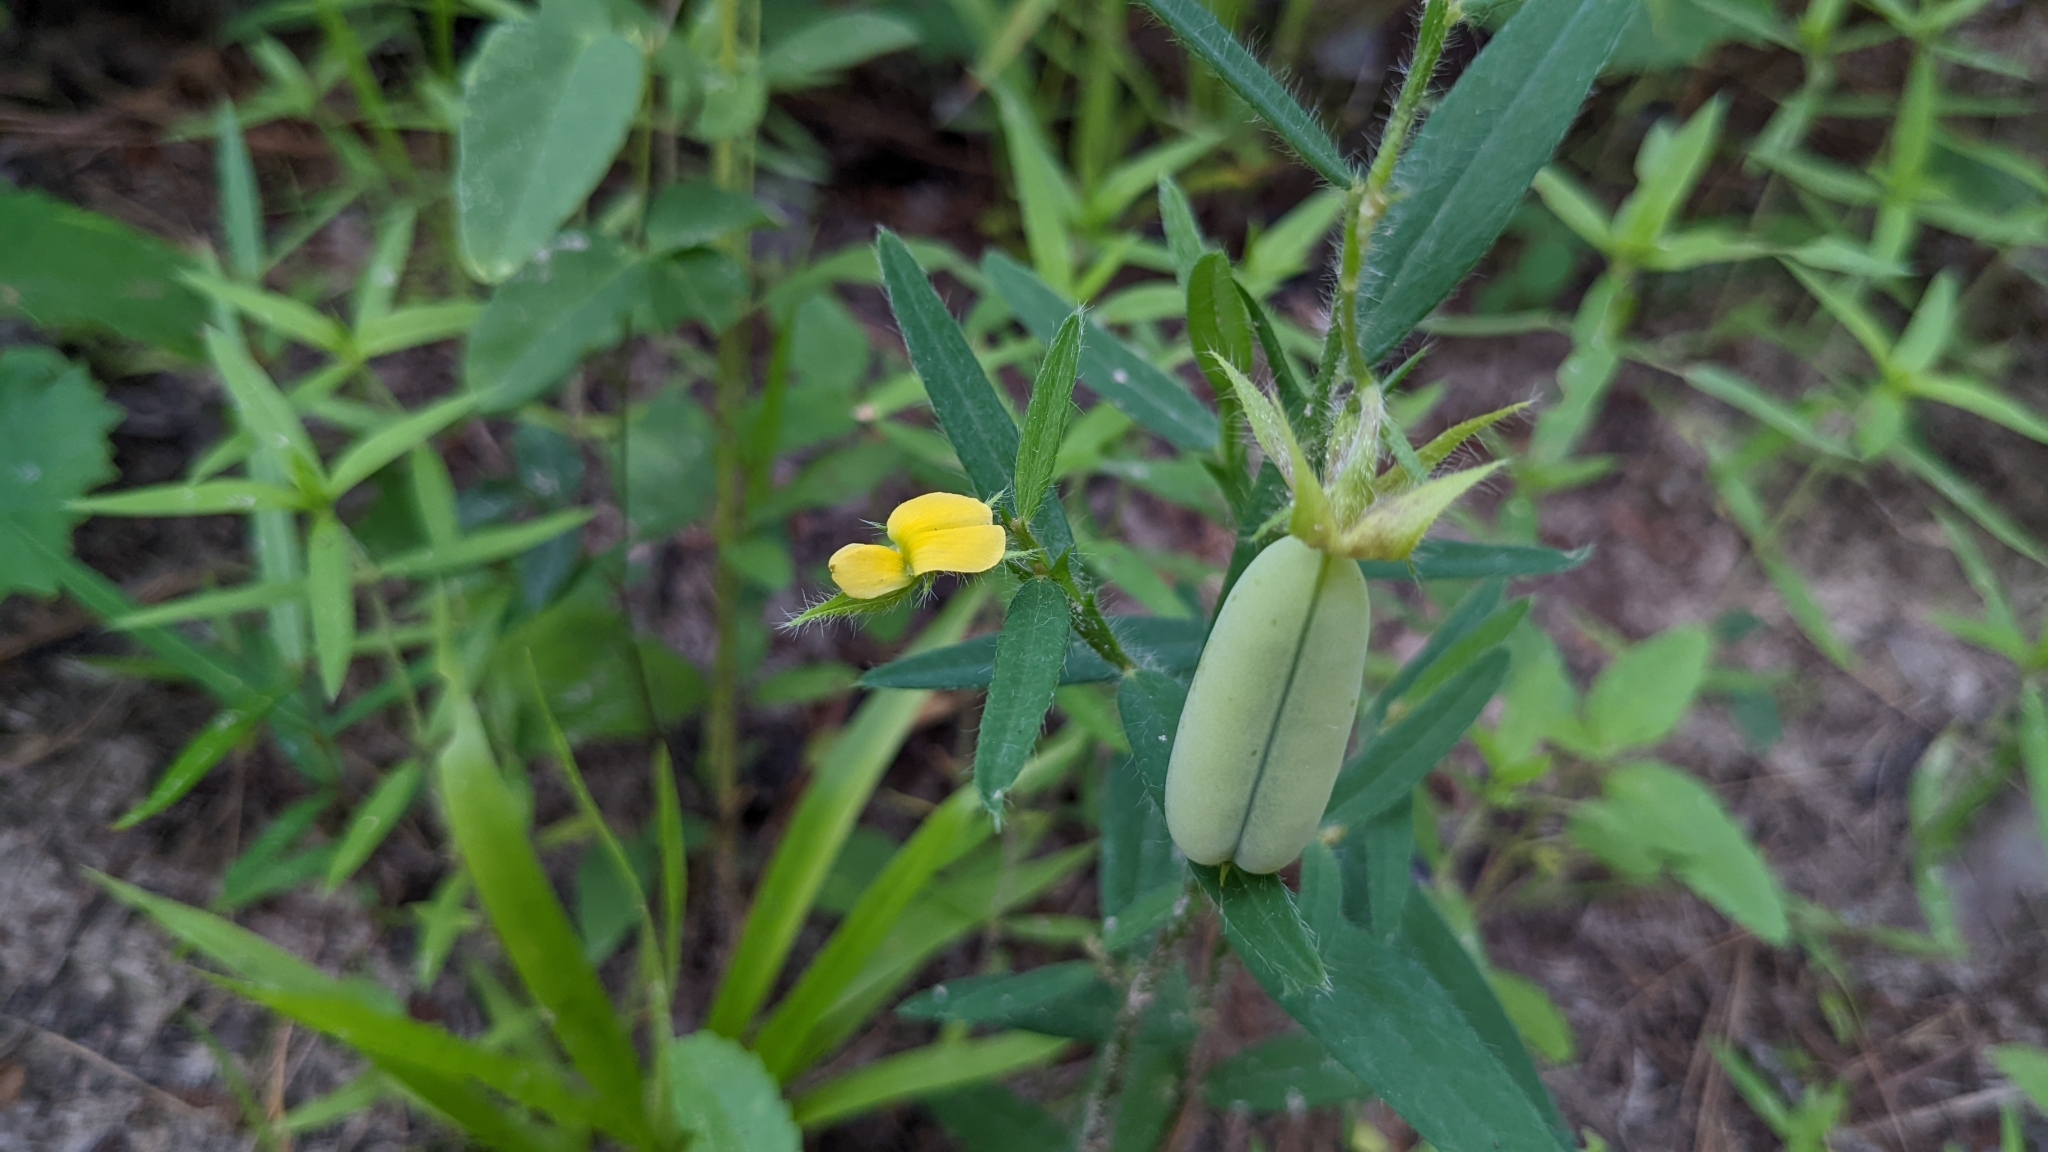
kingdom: Plantae
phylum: Tracheophyta
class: Magnoliopsida
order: Fabales
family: Fabaceae
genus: Crotalaria
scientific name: Crotalaria sagittalis
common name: Arrowhead rattlebox
